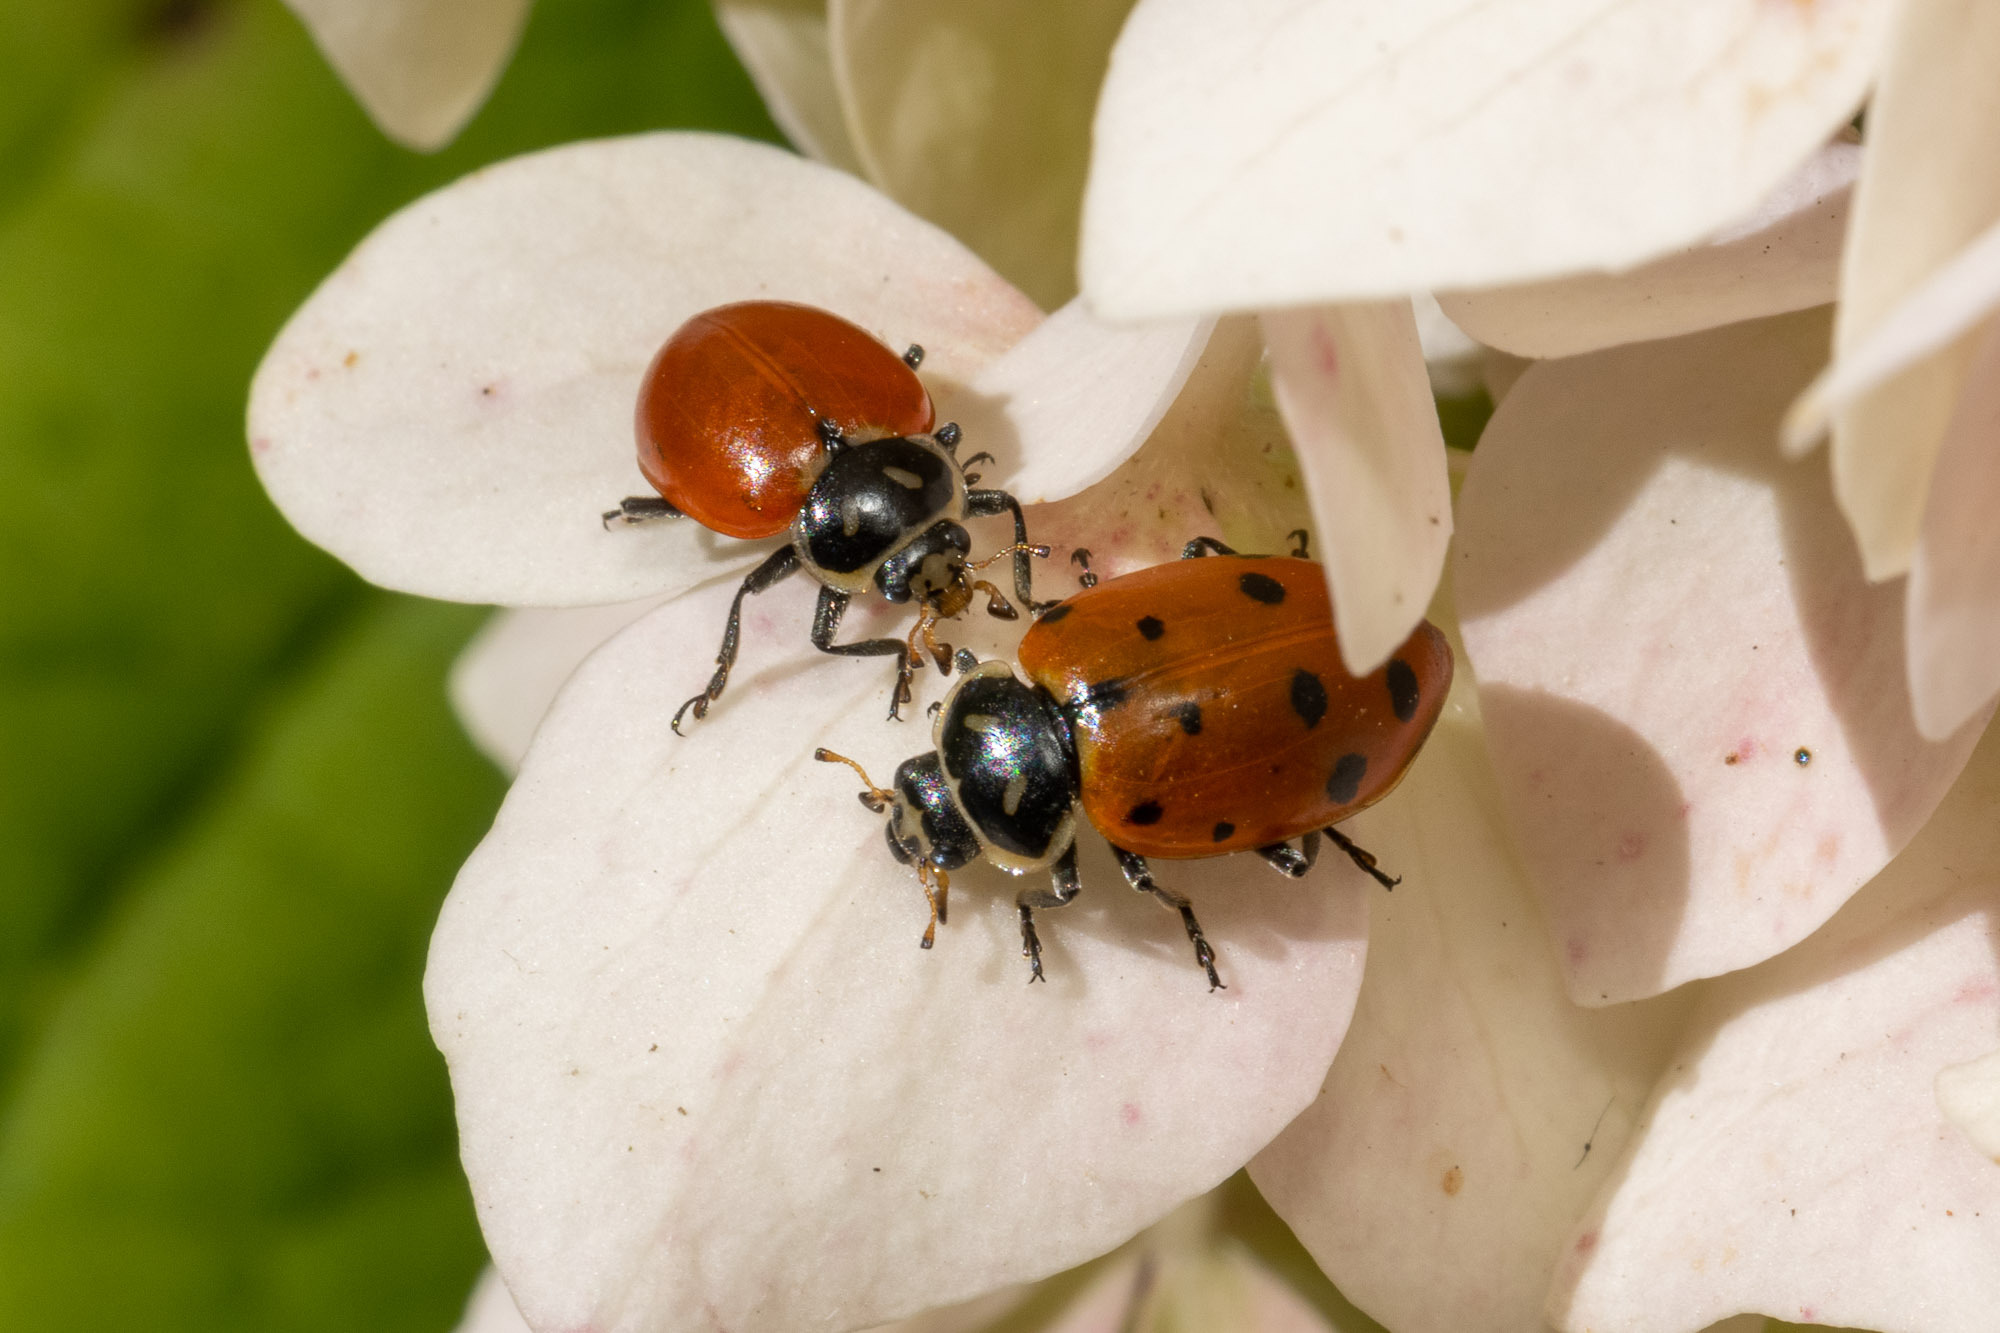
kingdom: Animalia
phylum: Arthropoda
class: Insecta
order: Coleoptera
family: Coccinellidae
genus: Hippodamia
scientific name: Hippodamia convergens
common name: Convergent lady beetle
